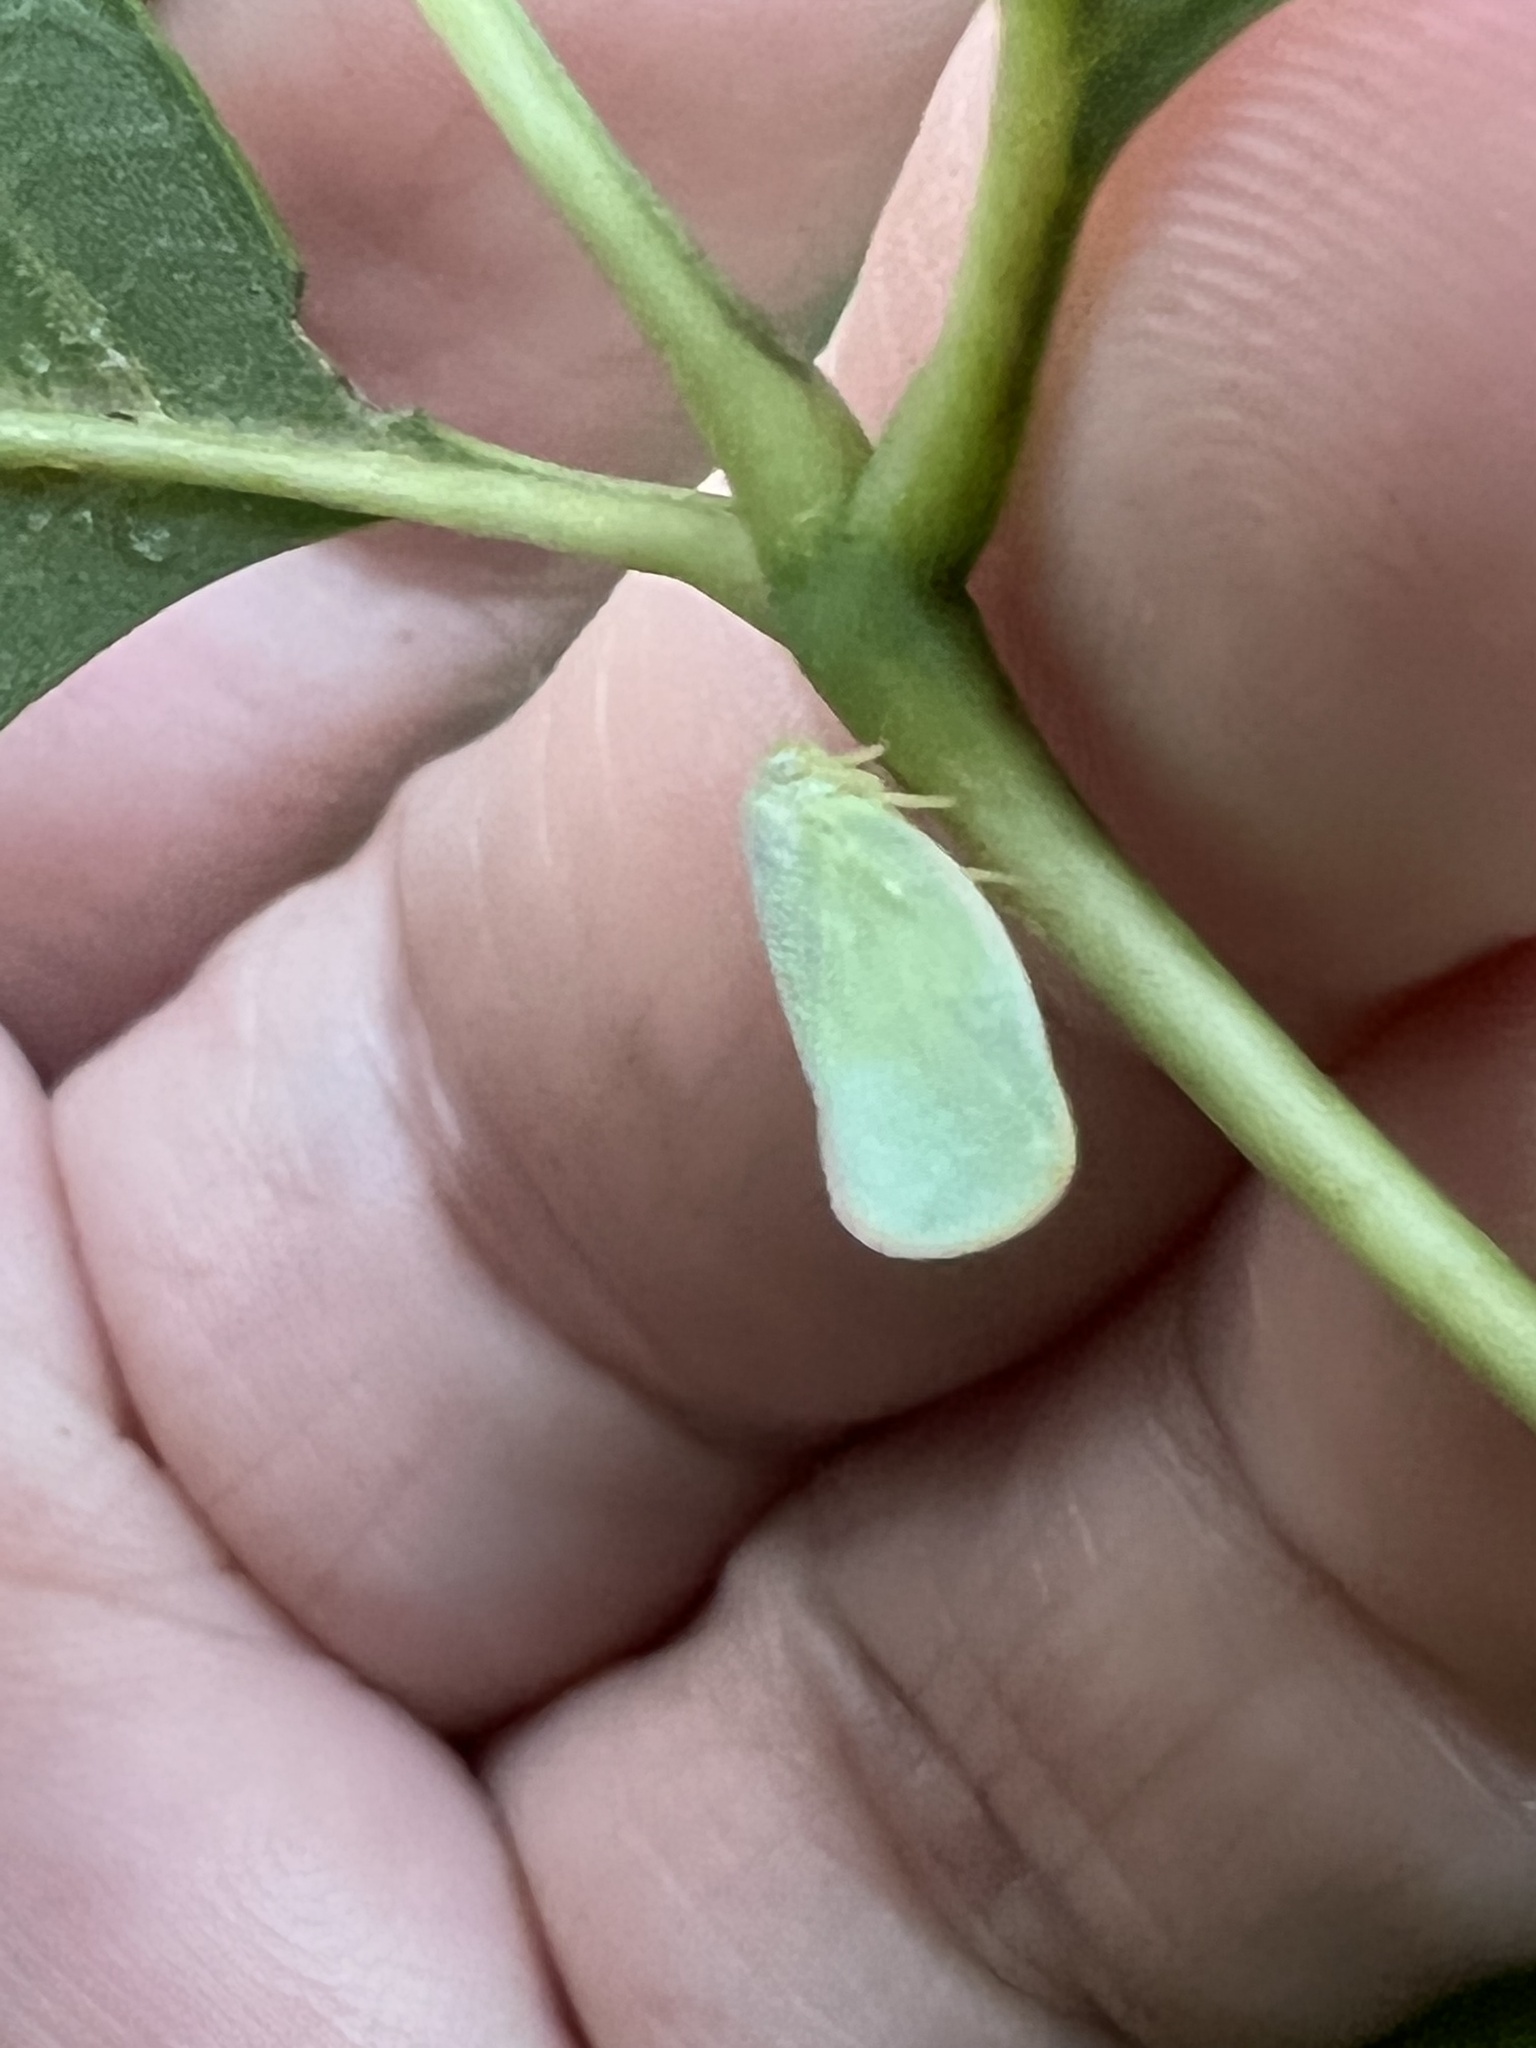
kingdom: Animalia
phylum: Arthropoda
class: Insecta
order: Hemiptera
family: Flatidae
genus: Ormenoides
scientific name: Ormenoides venusta
